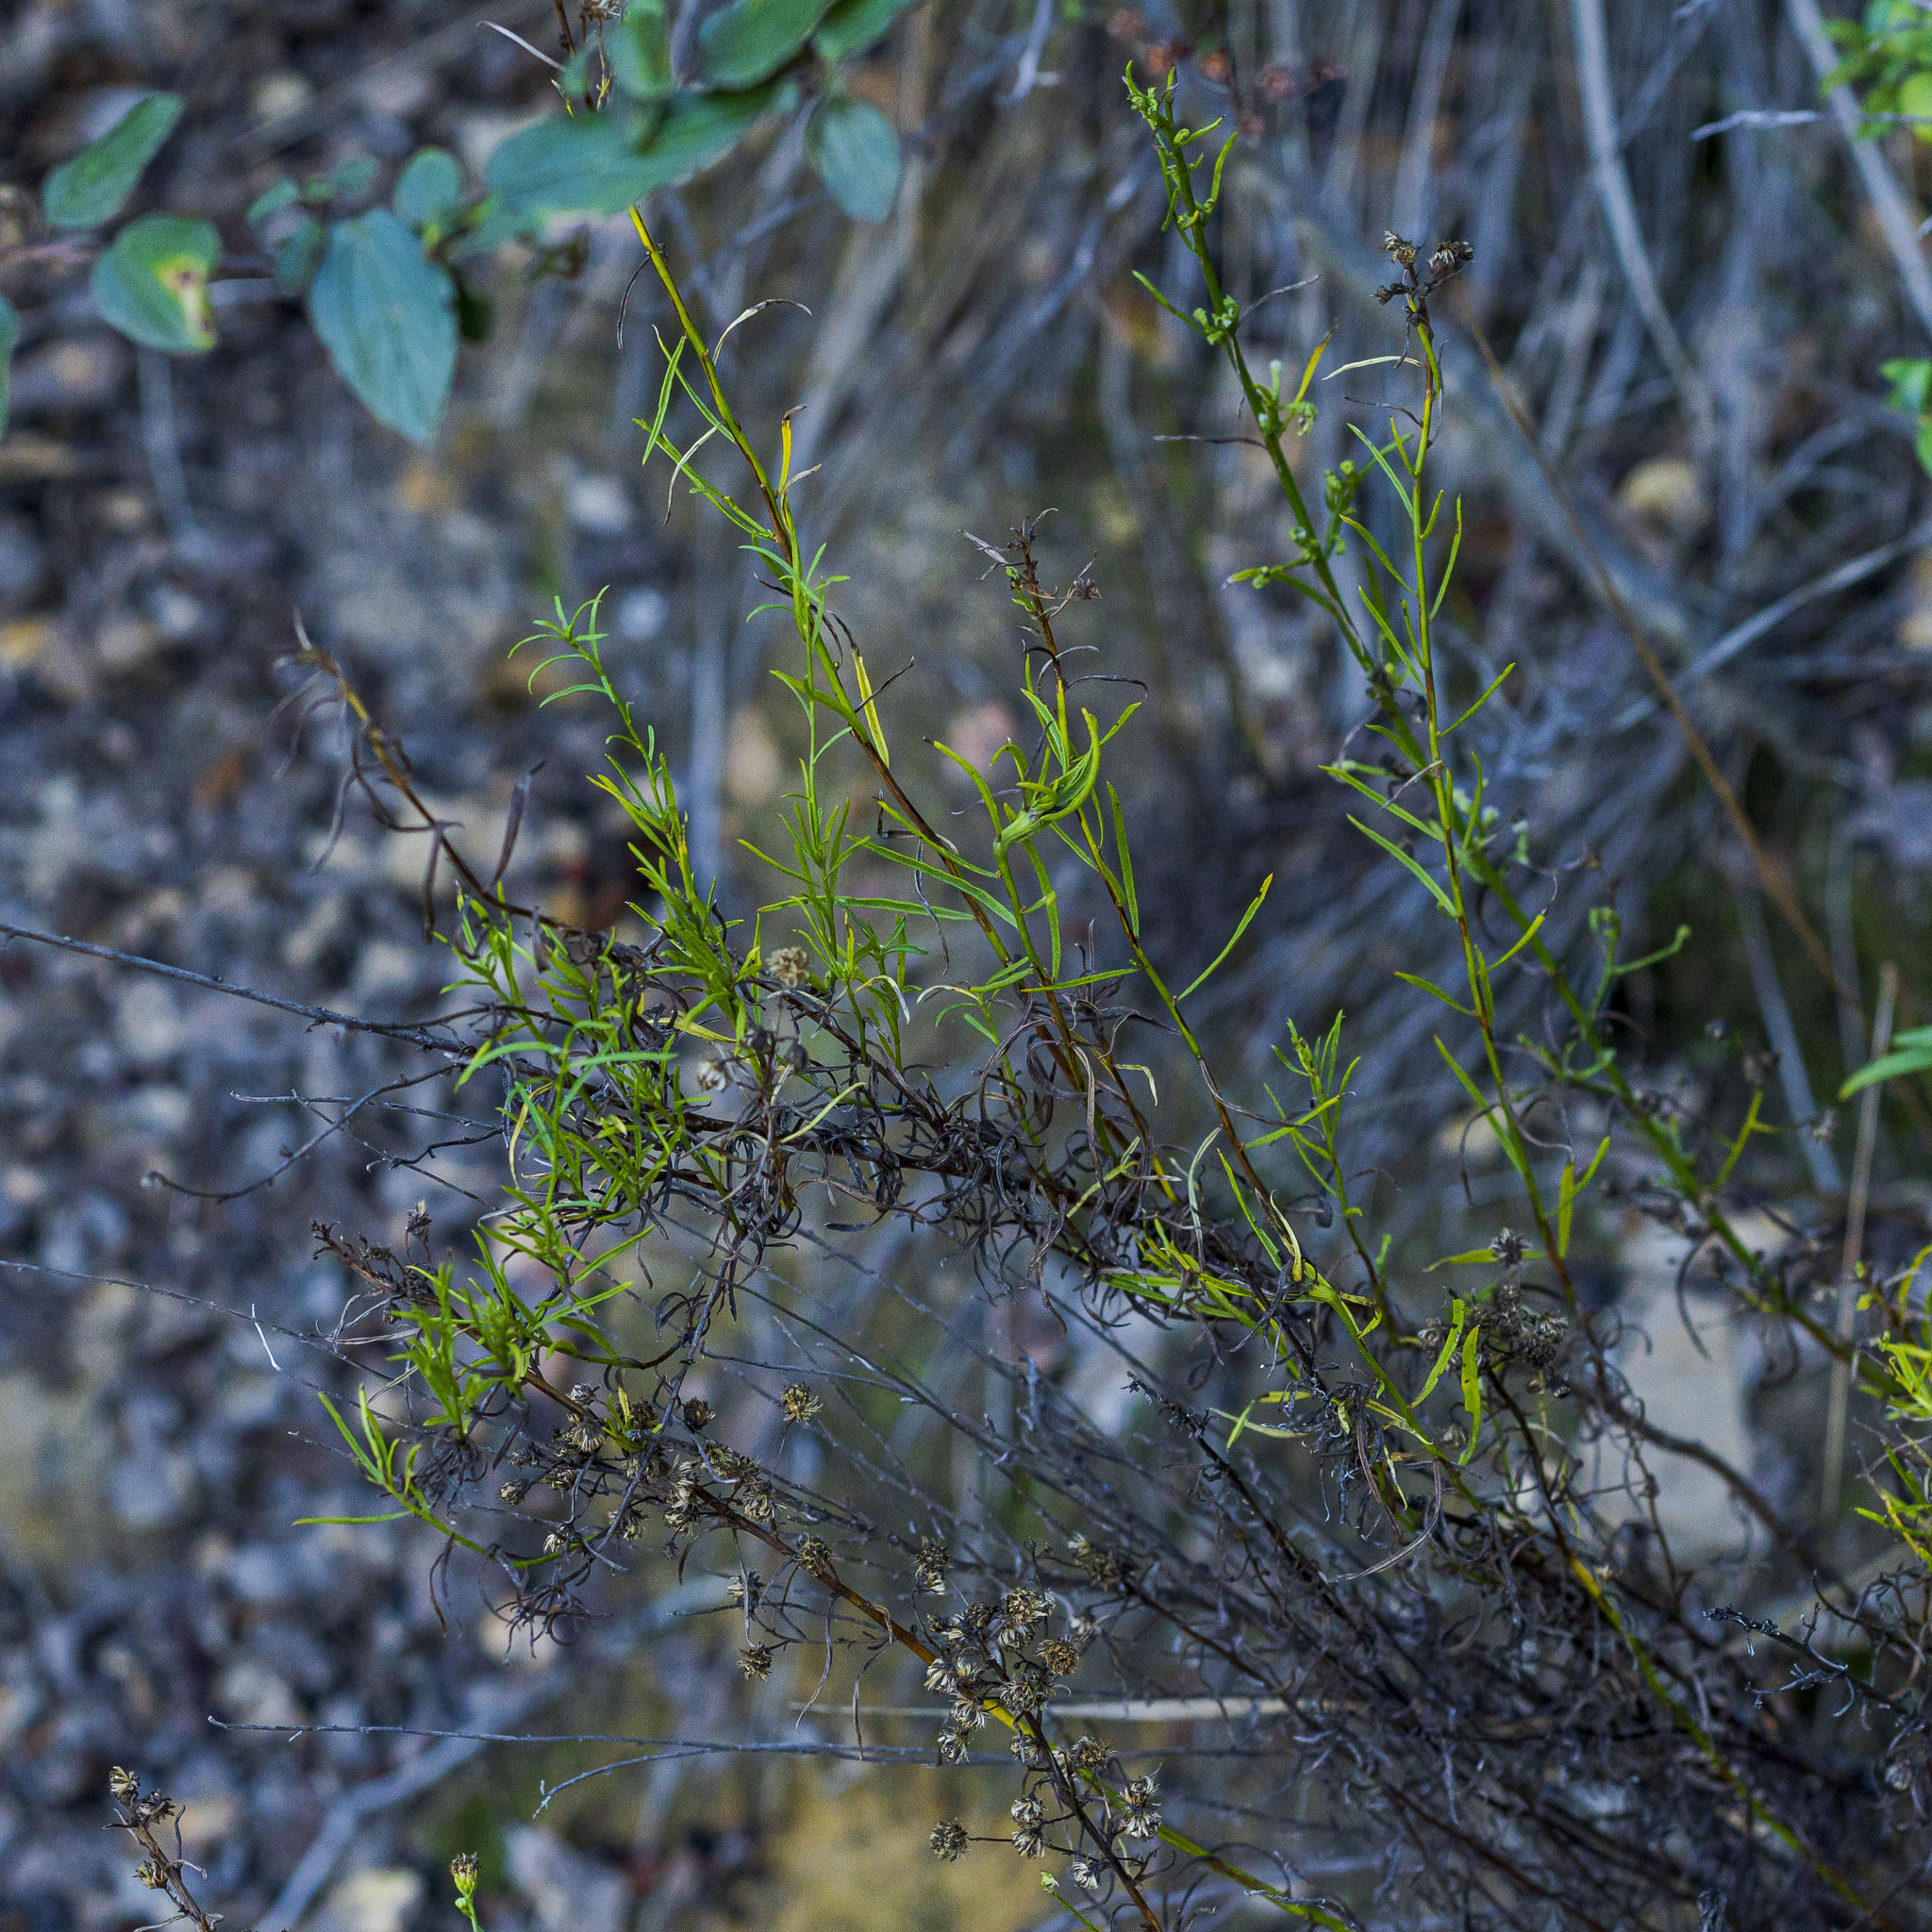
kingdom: Plantae
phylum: Tracheophyta
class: Magnoliopsida
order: Asterales
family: Asteraceae
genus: Baccharis
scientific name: Baccharis vanessae
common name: Encinitas baccharis
